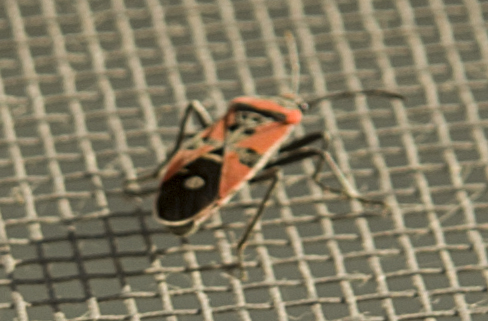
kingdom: Animalia
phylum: Arthropoda
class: Insecta
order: Hemiptera
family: Lygaeidae
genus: Lygaeus
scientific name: Lygaeus equestris
